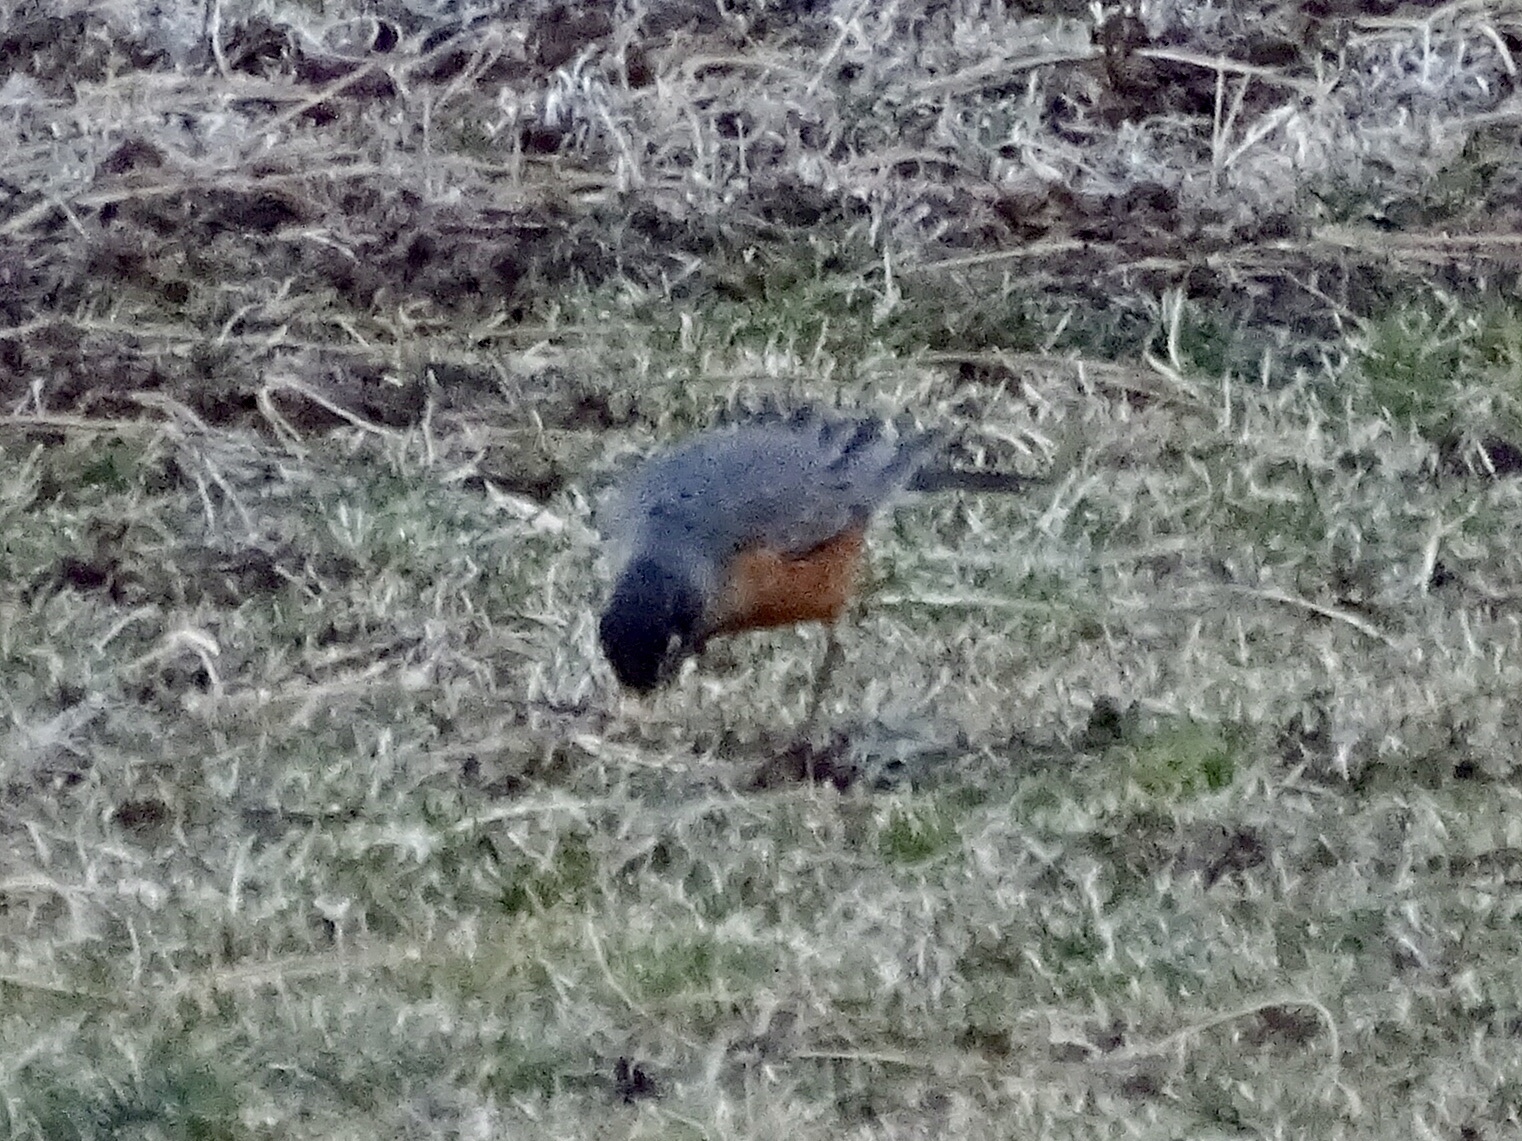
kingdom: Animalia
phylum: Chordata
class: Aves
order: Passeriformes
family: Turdidae
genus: Turdus
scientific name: Turdus migratorius
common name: American robin
